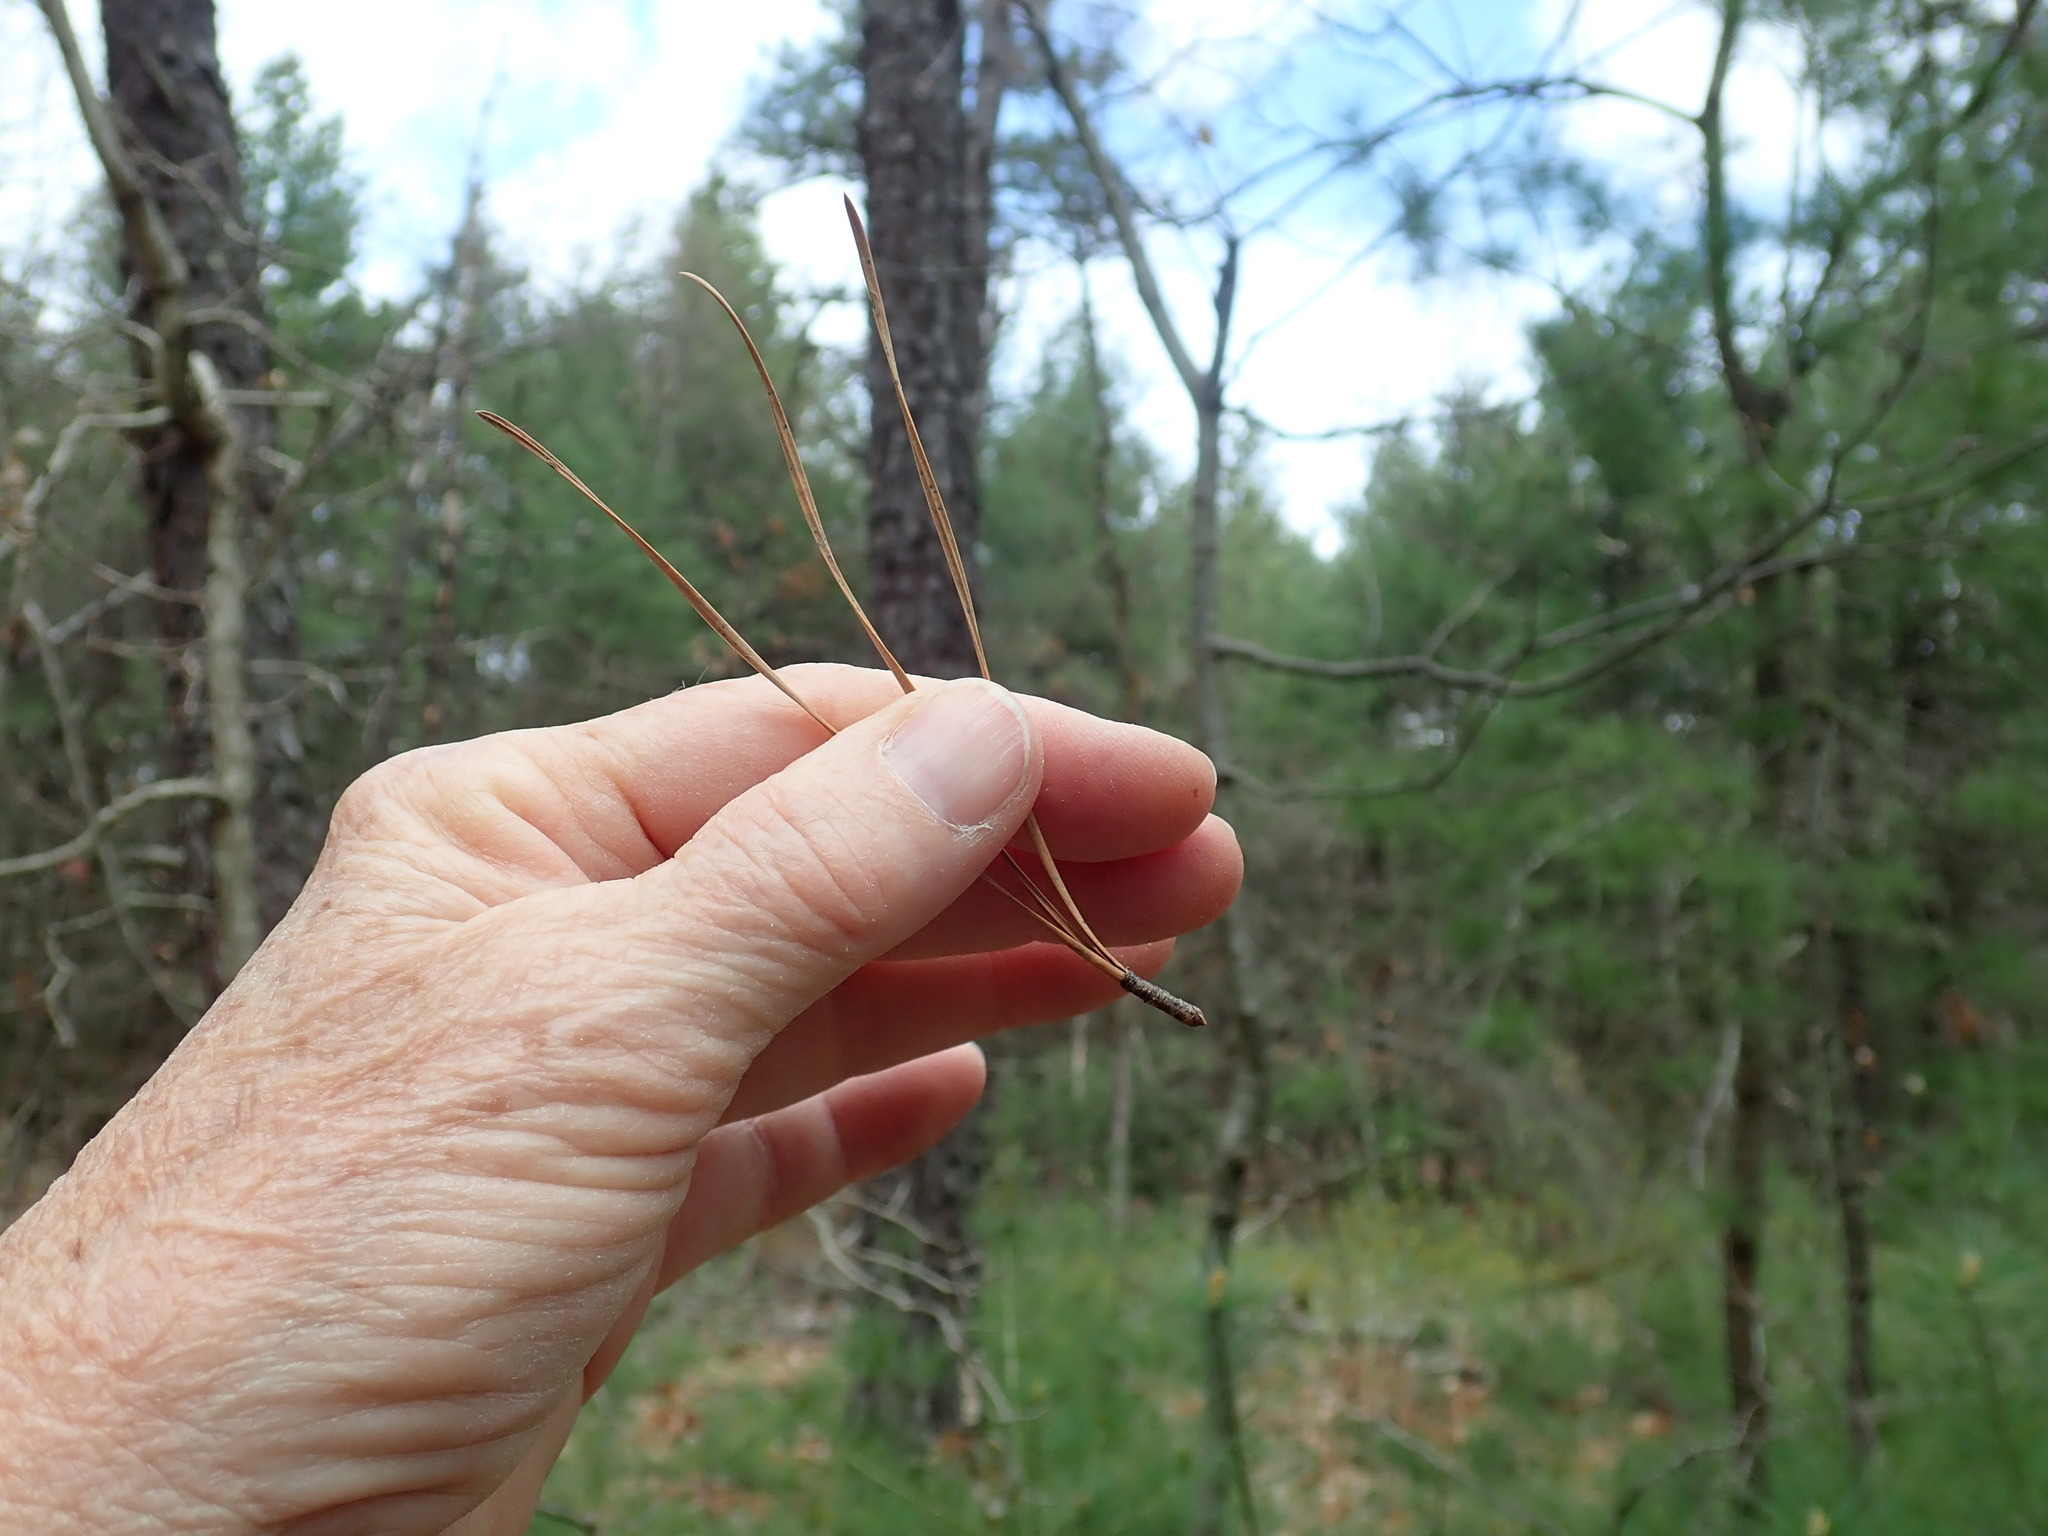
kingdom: Plantae
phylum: Tracheophyta
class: Pinopsida
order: Pinales
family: Pinaceae
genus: Pinus
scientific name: Pinus rigida
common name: Pitch pine
